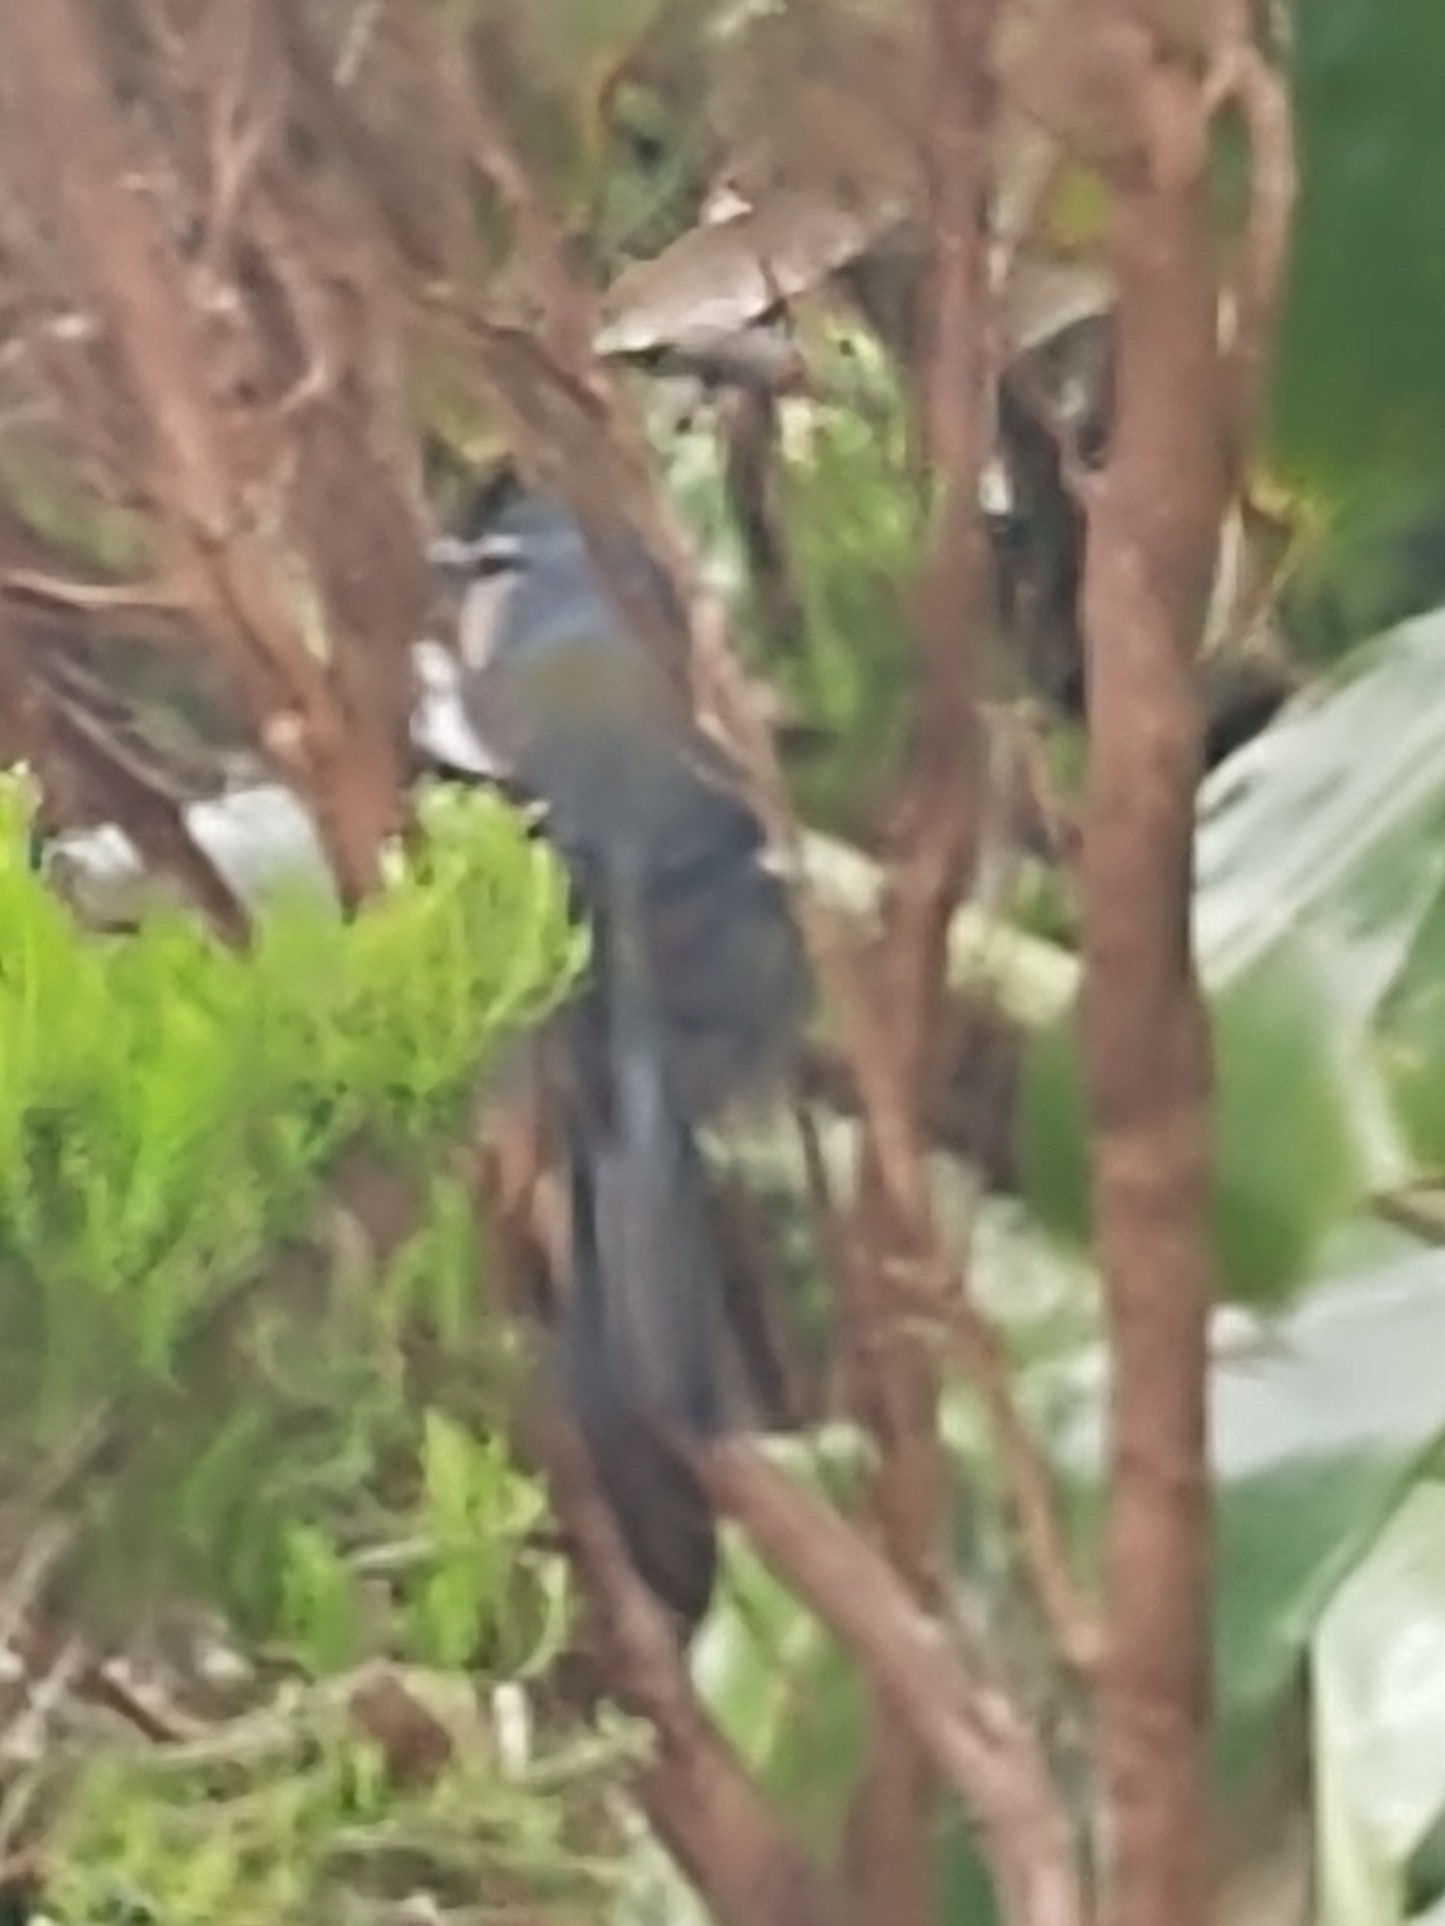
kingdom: Animalia
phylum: Chordata
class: Aves
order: Passeriformes
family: Fringillidae
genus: Fringilla
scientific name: Fringilla moreletti
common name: Azores chaffinch
